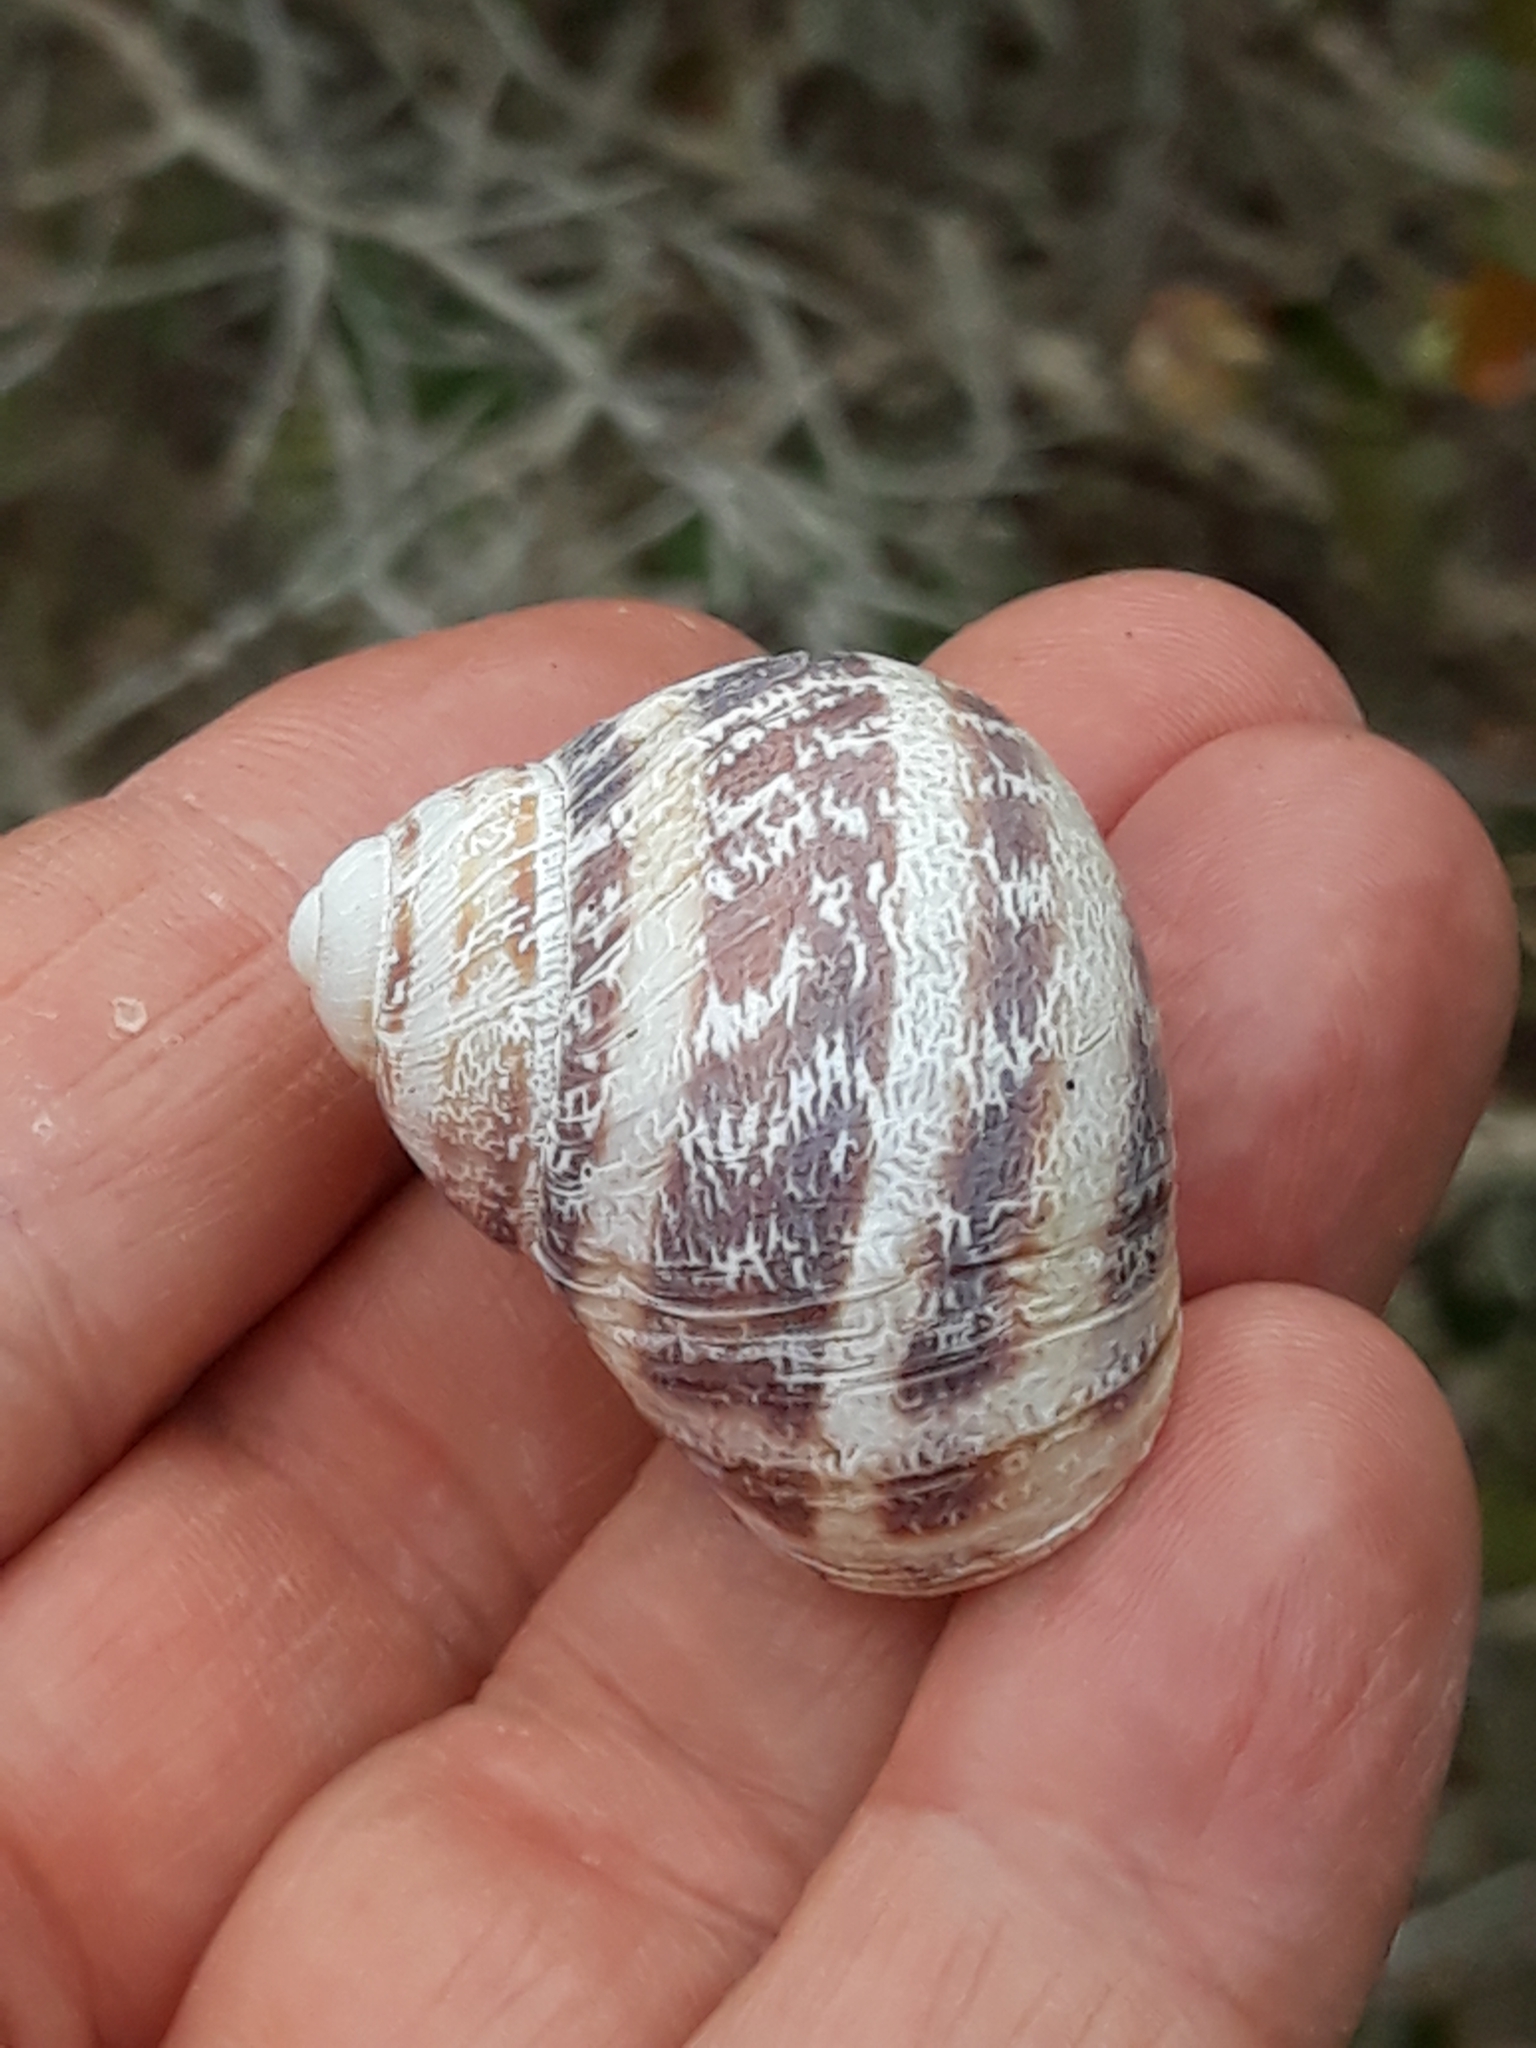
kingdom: Animalia
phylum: Mollusca
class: Gastropoda
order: Stylommatophora
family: Helicidae
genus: Cornu
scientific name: Cornu aspersum
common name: Brown garden snail
